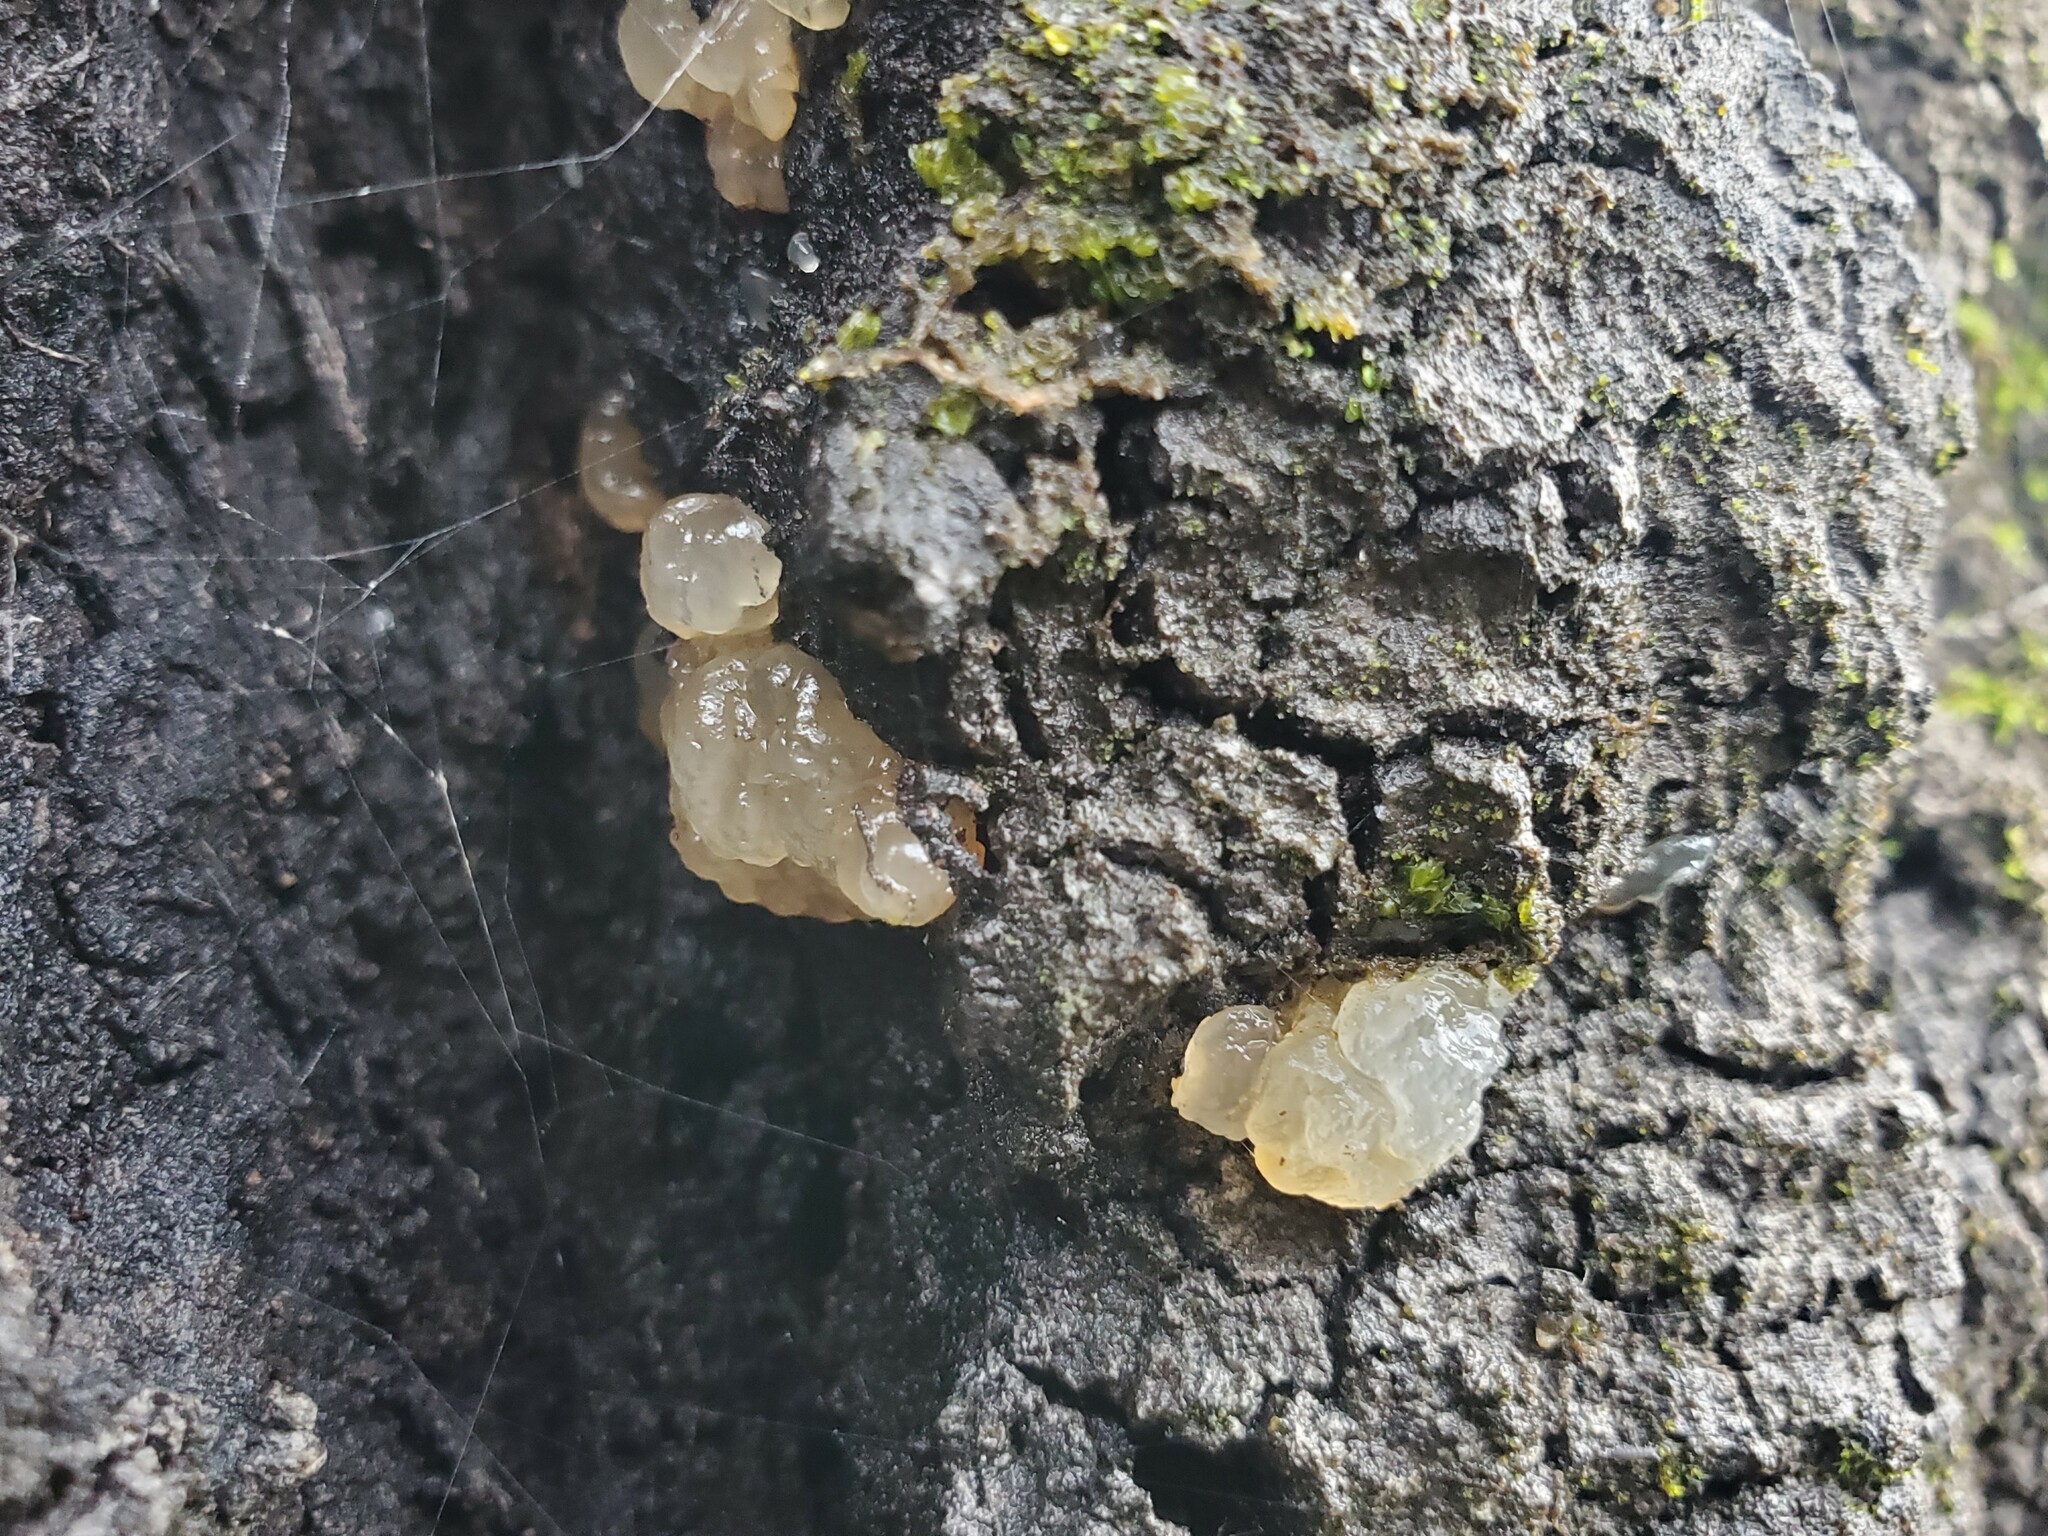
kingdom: Fungi
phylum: Basidiomycota
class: Agaricomycetes
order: Auriculariales
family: Hyaloriaceae
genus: Myxarium
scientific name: Myxarium nucleatum
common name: Crystal brain fungus
